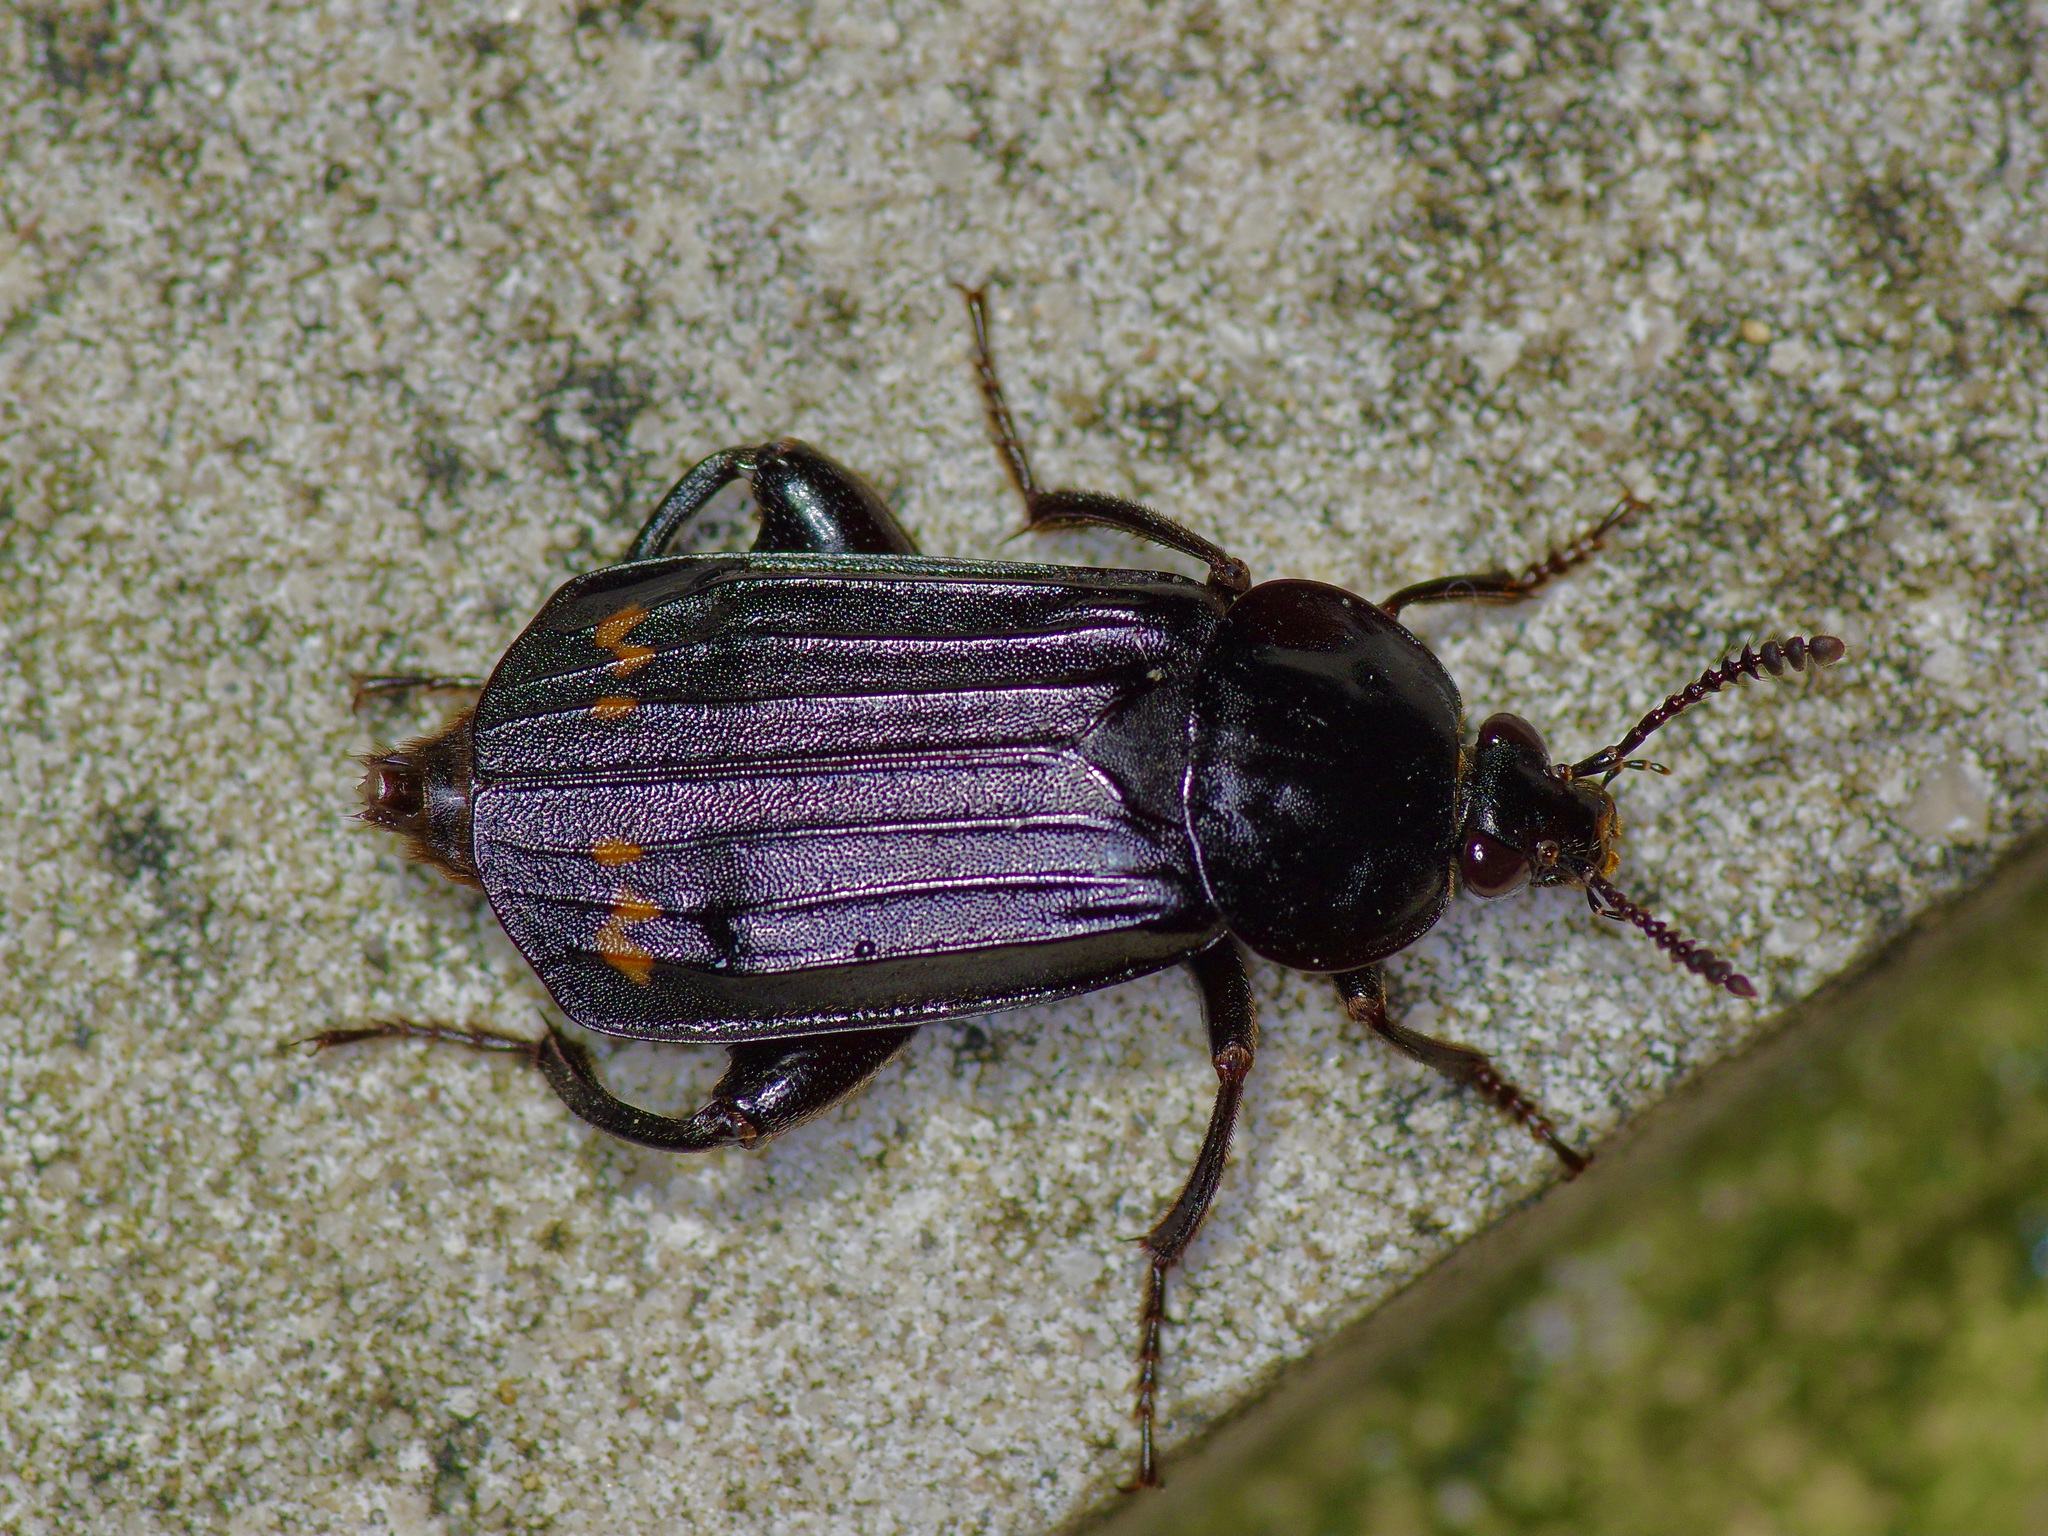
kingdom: Animalia
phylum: Arthropoda
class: Insecta
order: Coleoptera
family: Staphylinidae
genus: Necrodes
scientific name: Necrodes surinamensis
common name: Red-lined carrion beetle
